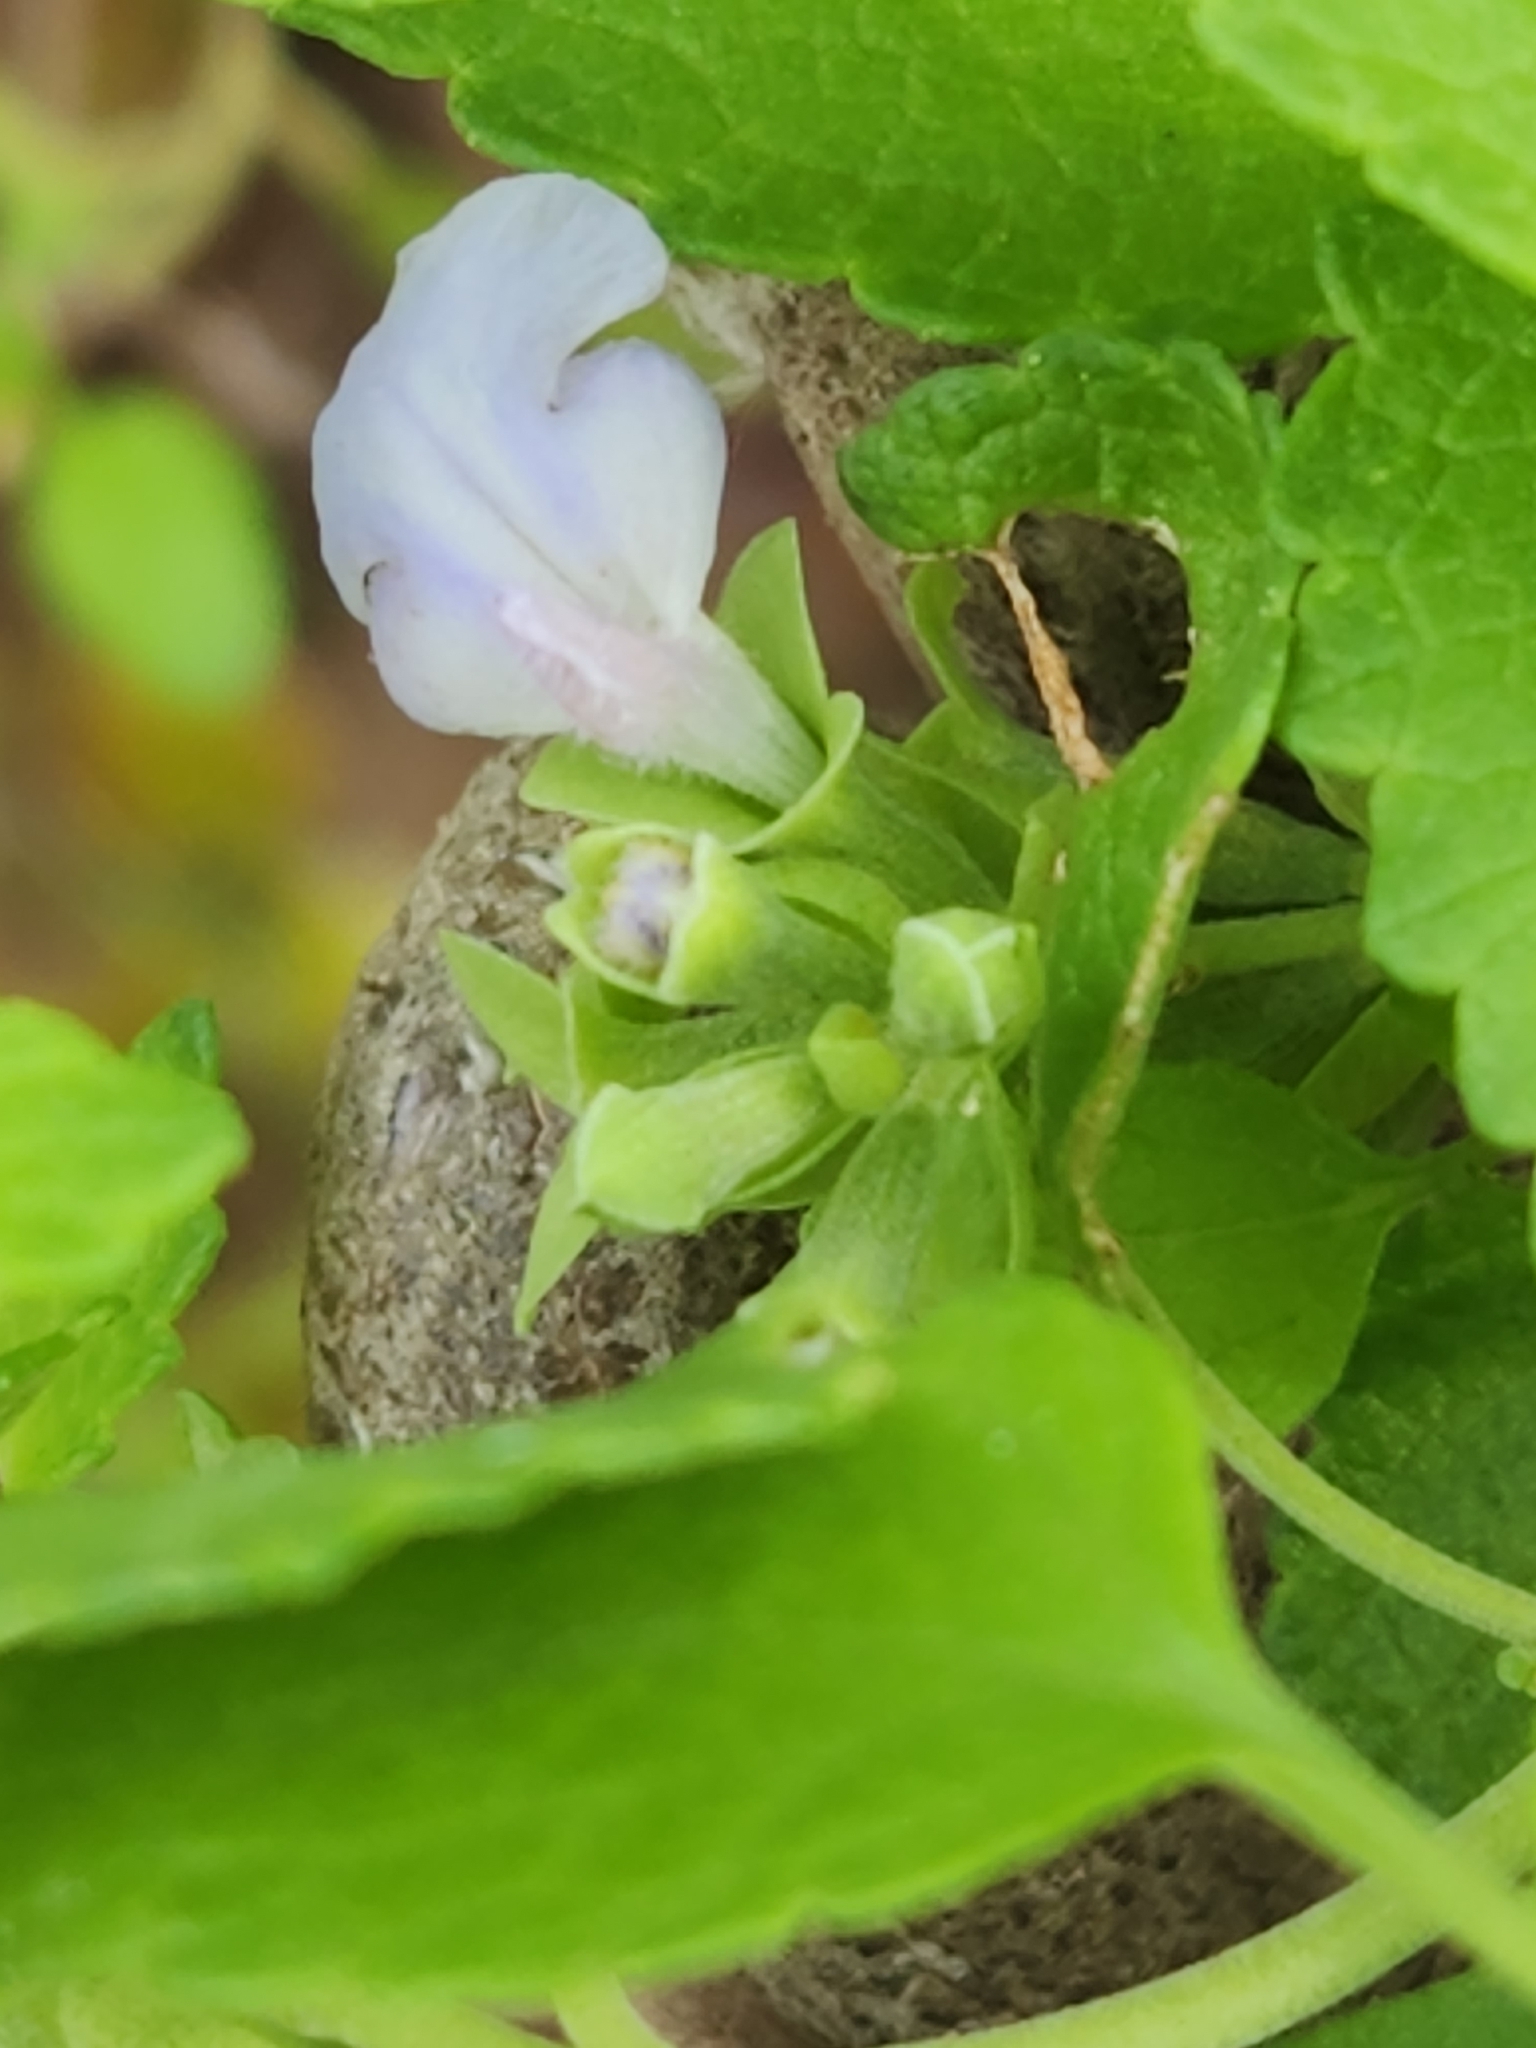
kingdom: Plantae
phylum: Tracheophyta
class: Magnoliopsida
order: Lamiales
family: Lamiaceae
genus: Salvia
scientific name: Salvia ballotiflora
